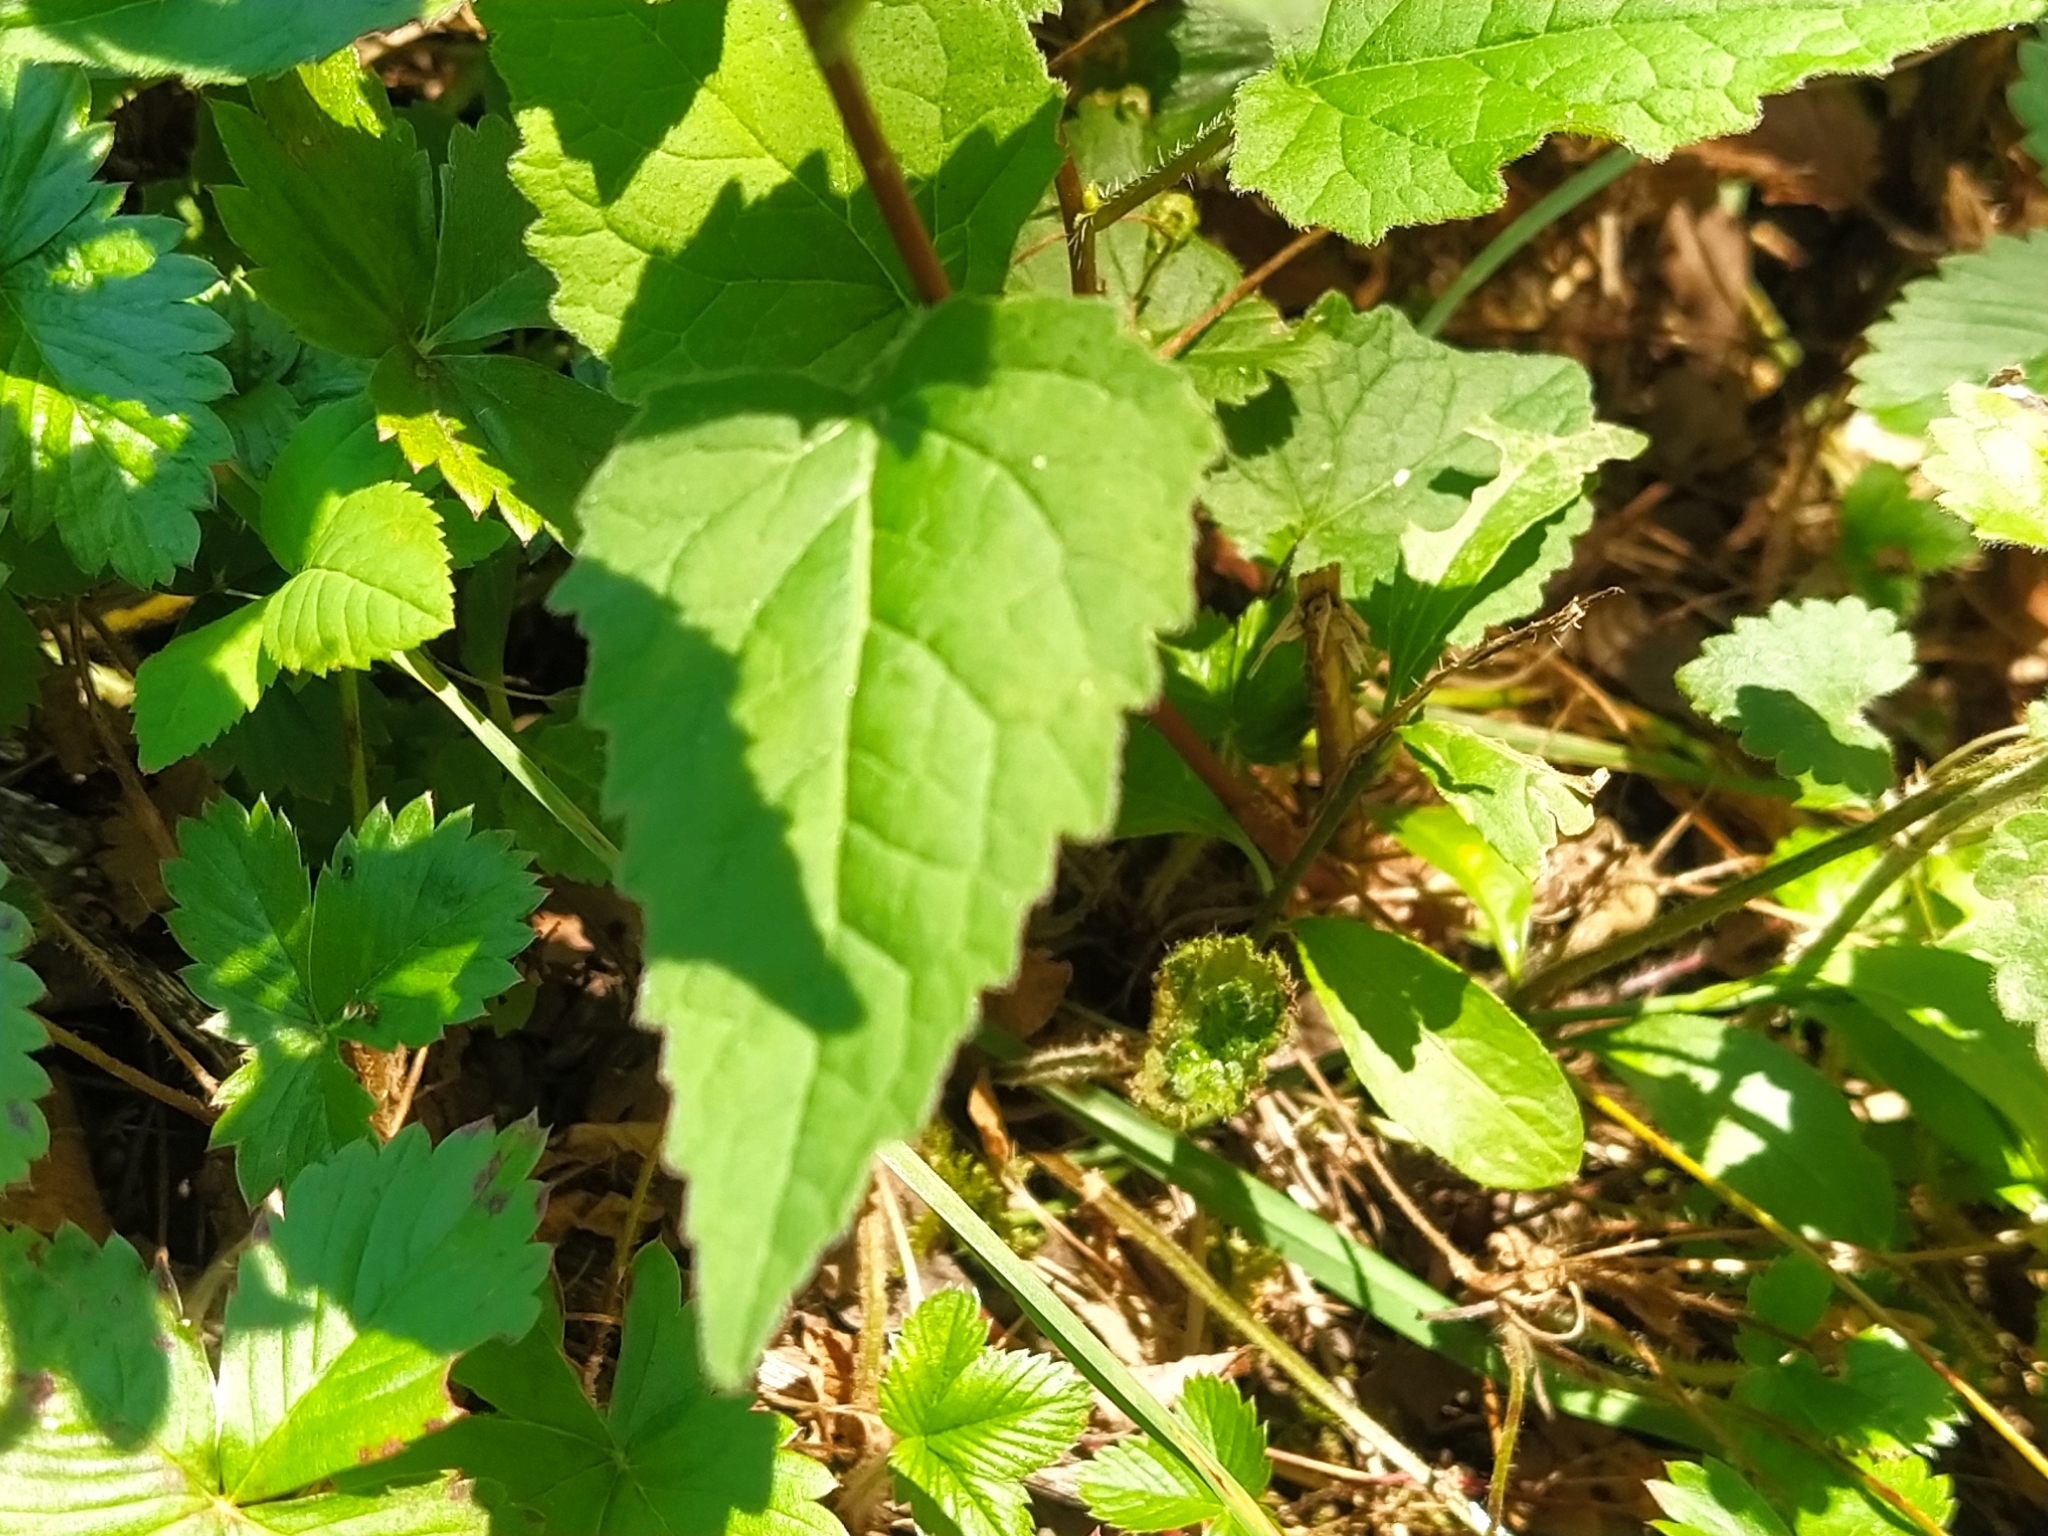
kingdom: Plantae
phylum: Tracheophyta
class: Magnoliopsida
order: Asterales
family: Campanulaceae
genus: Campanula
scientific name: Campanula trachelium
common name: Nettle-leaved bellflower
